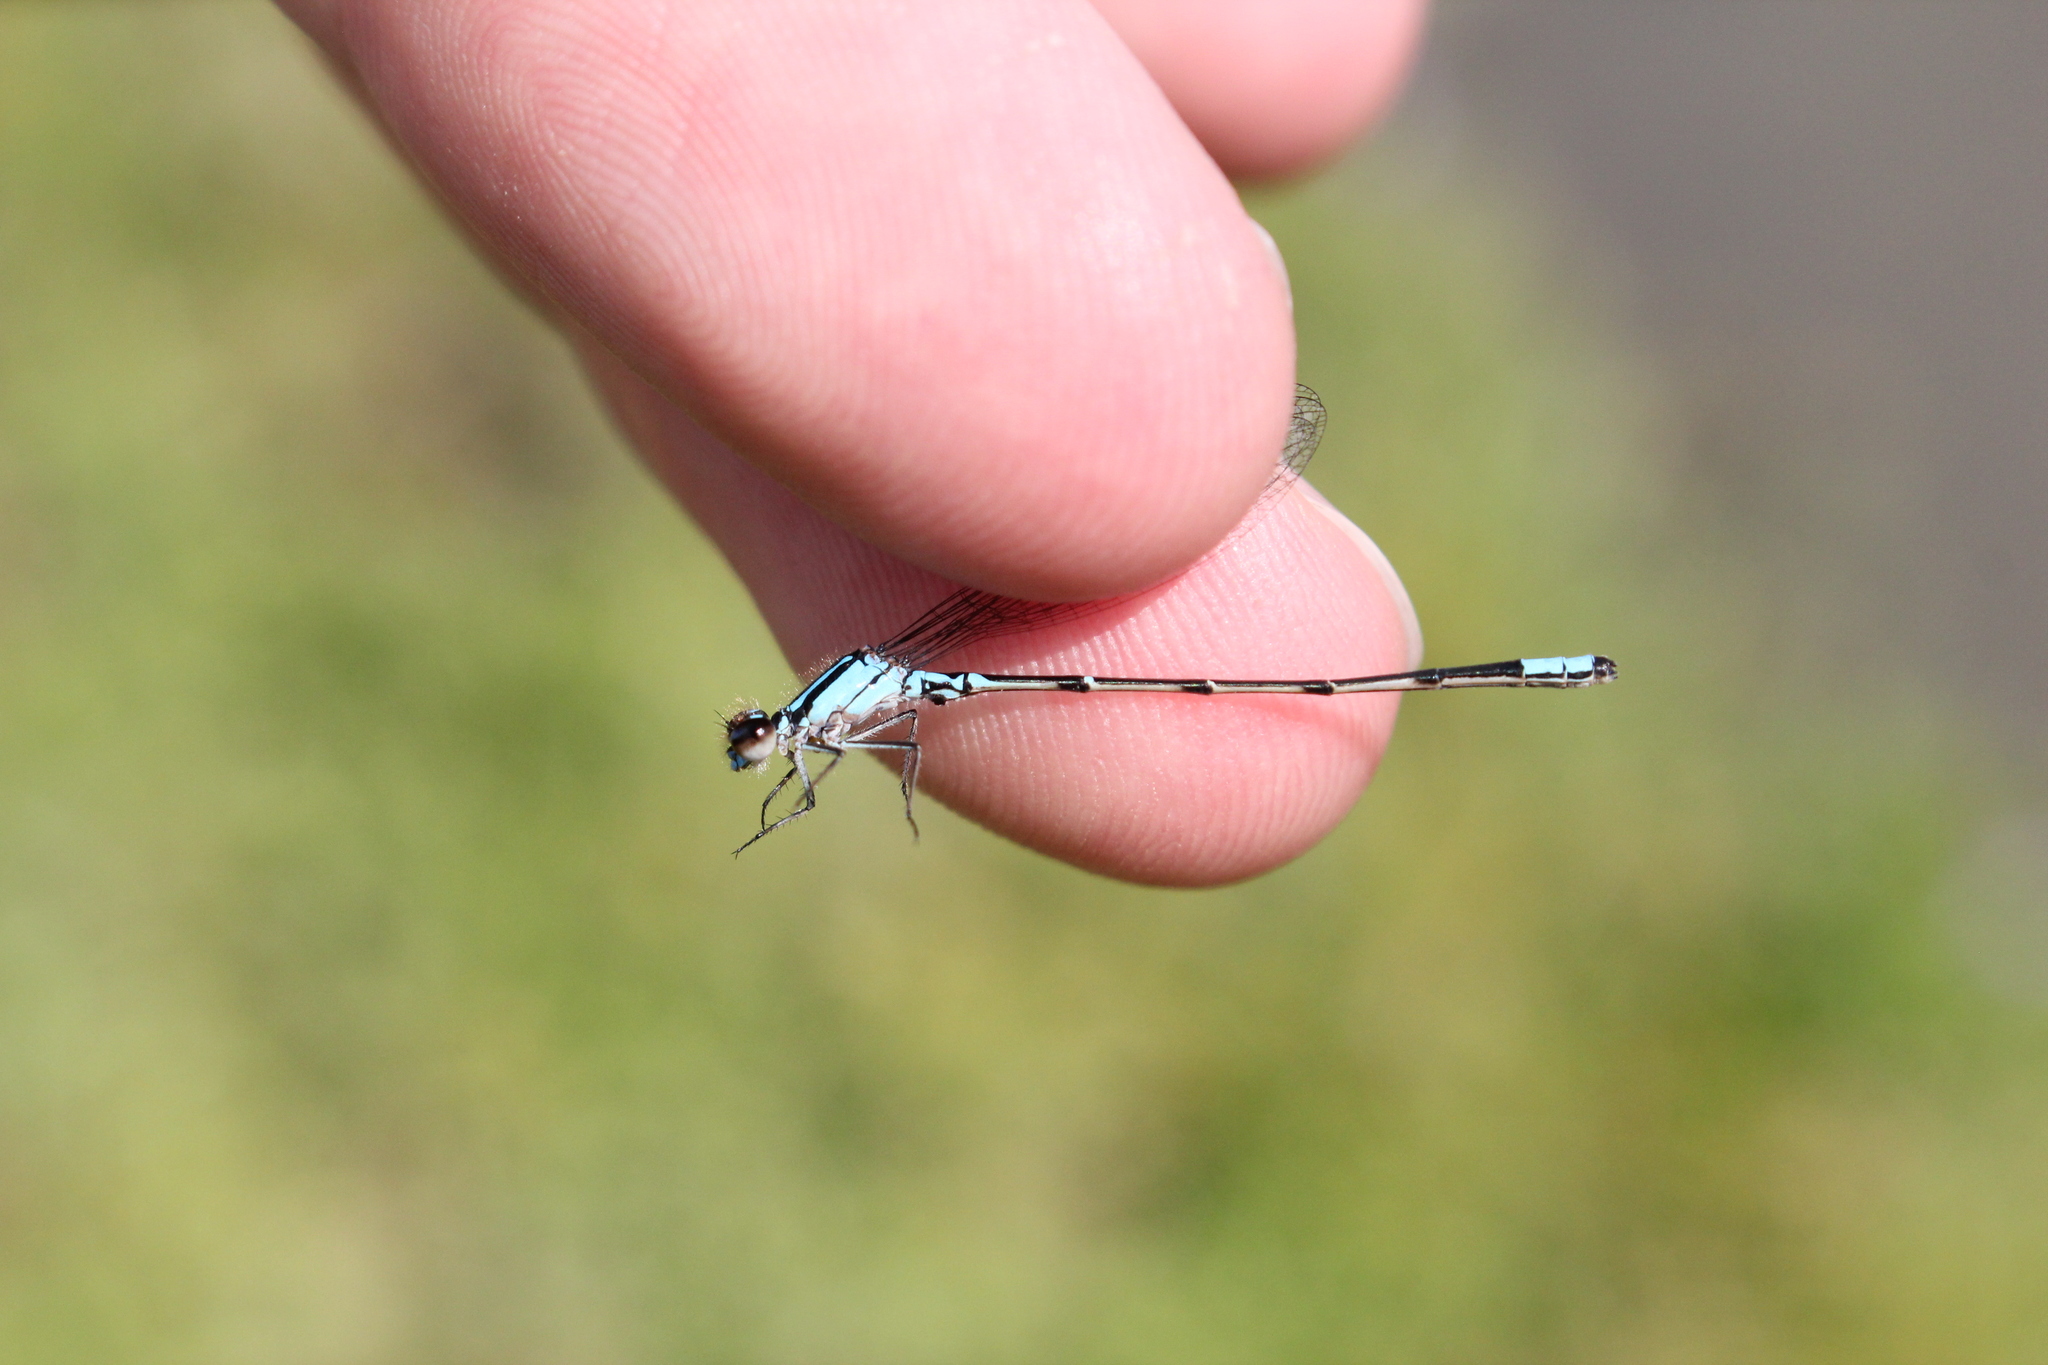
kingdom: Animalia
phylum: Arthropoda
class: Insecta
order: Odonata
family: Coenagrionidae
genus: Enallagma
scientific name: Enallagma geminatum
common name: Skimming bluet
